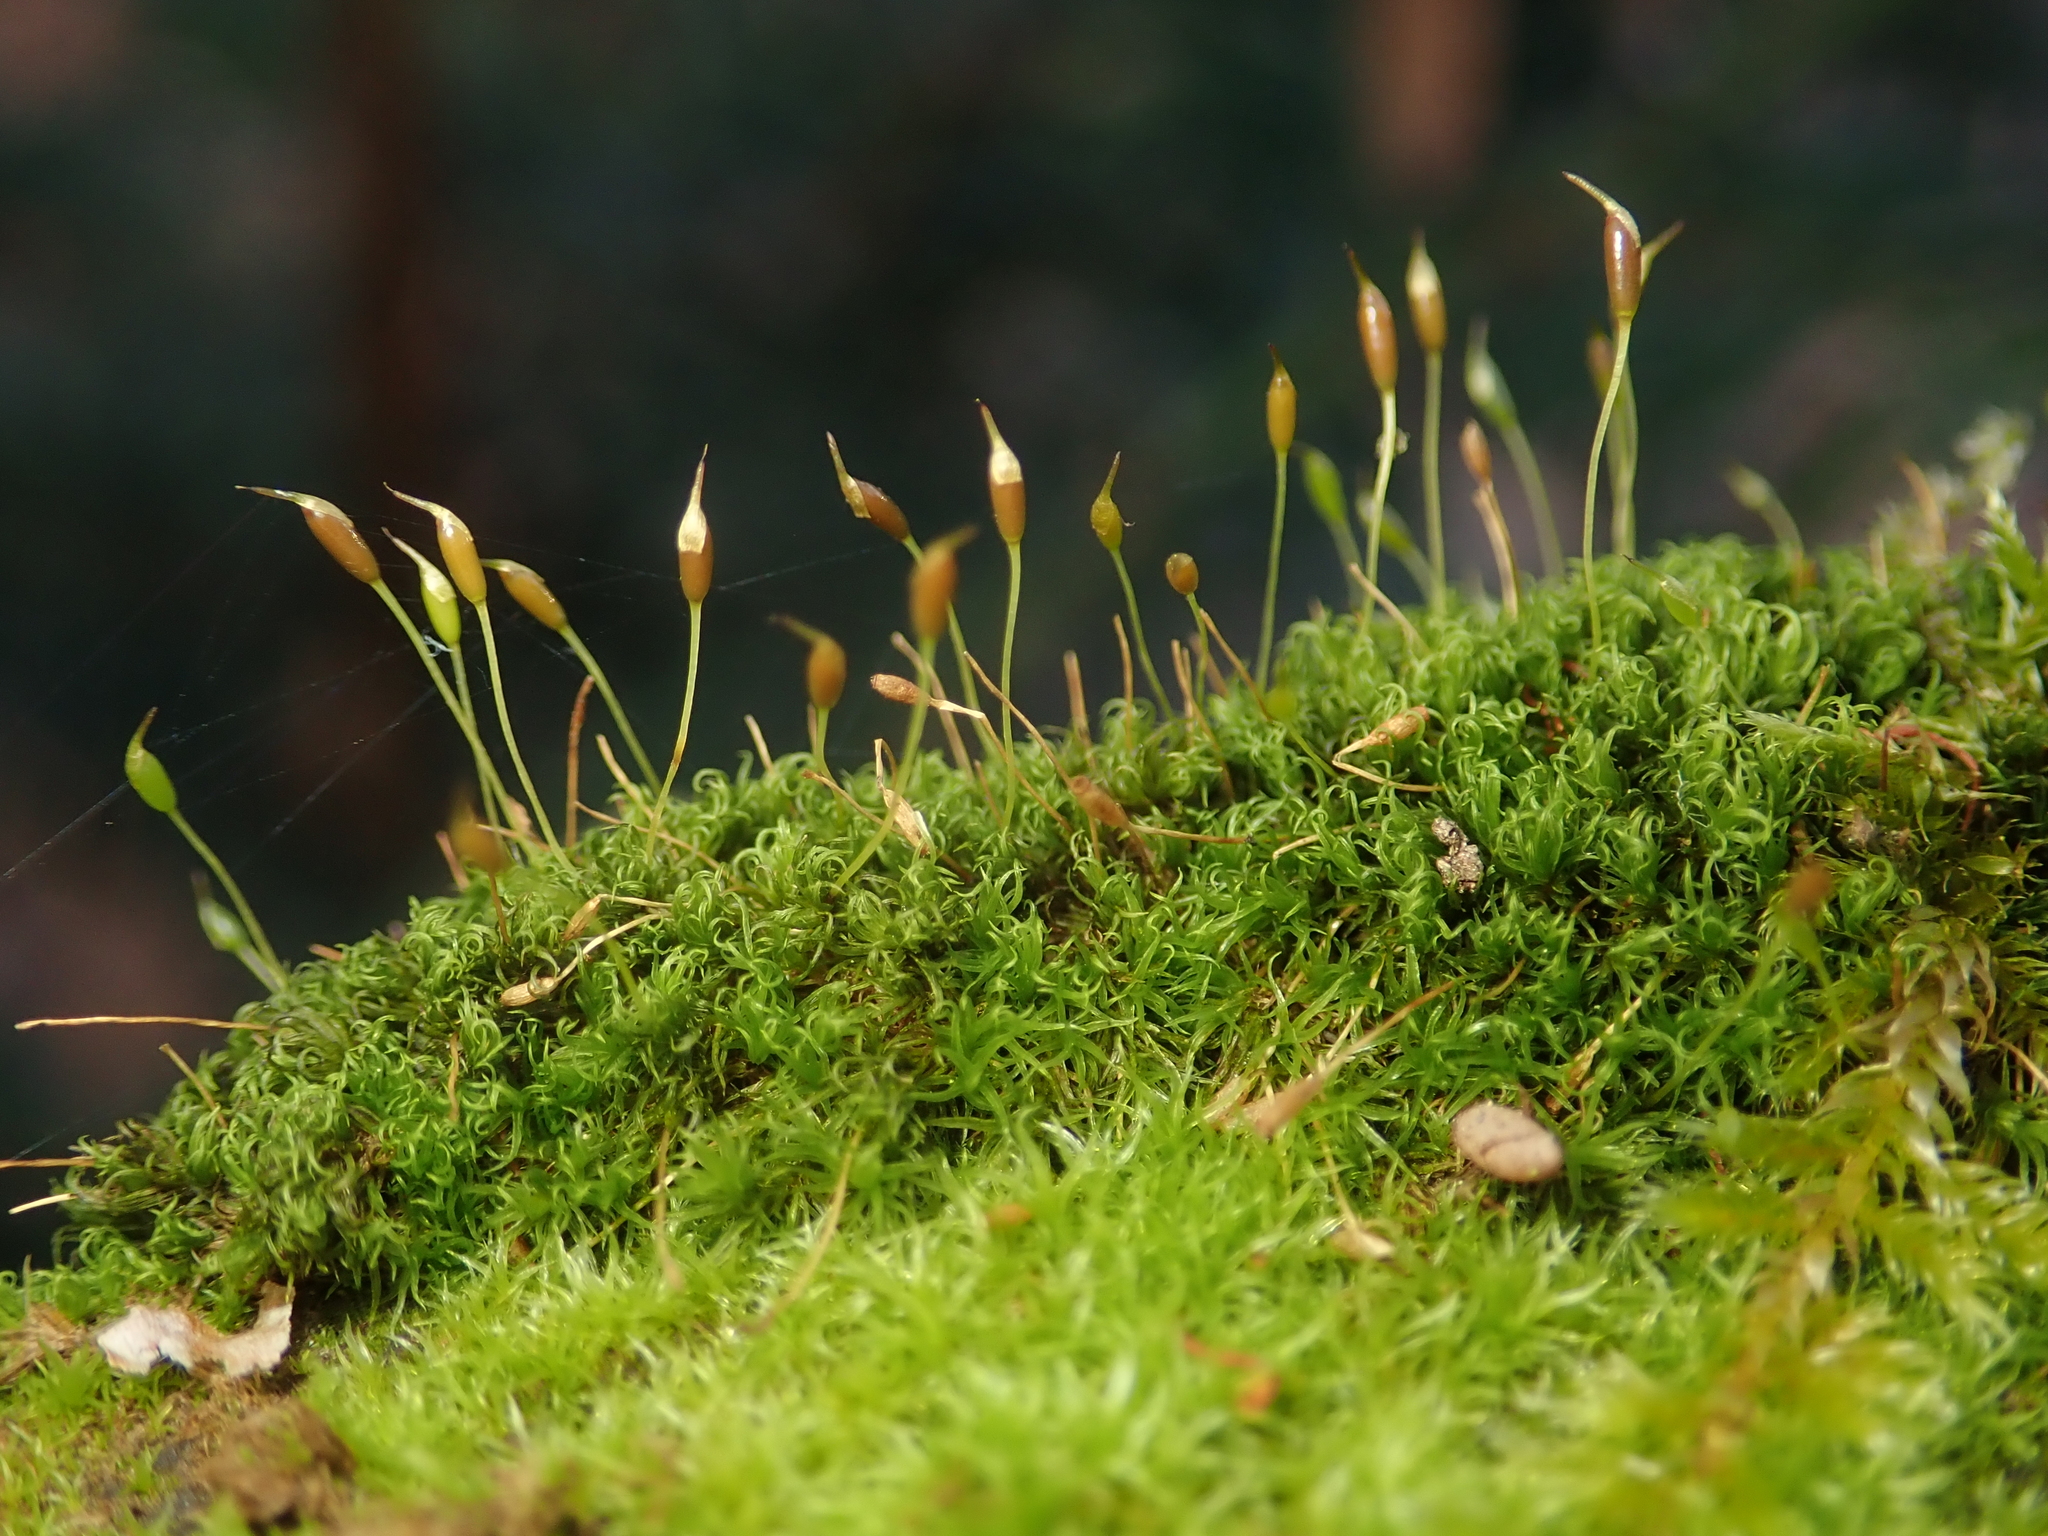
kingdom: Plantae
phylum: Bryophyta
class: Bryopsida
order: Dicranales
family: Rhabdoweisiaceae
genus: Dicranoweisia
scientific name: Dicranoweisia cirrata
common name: Common pincushion
